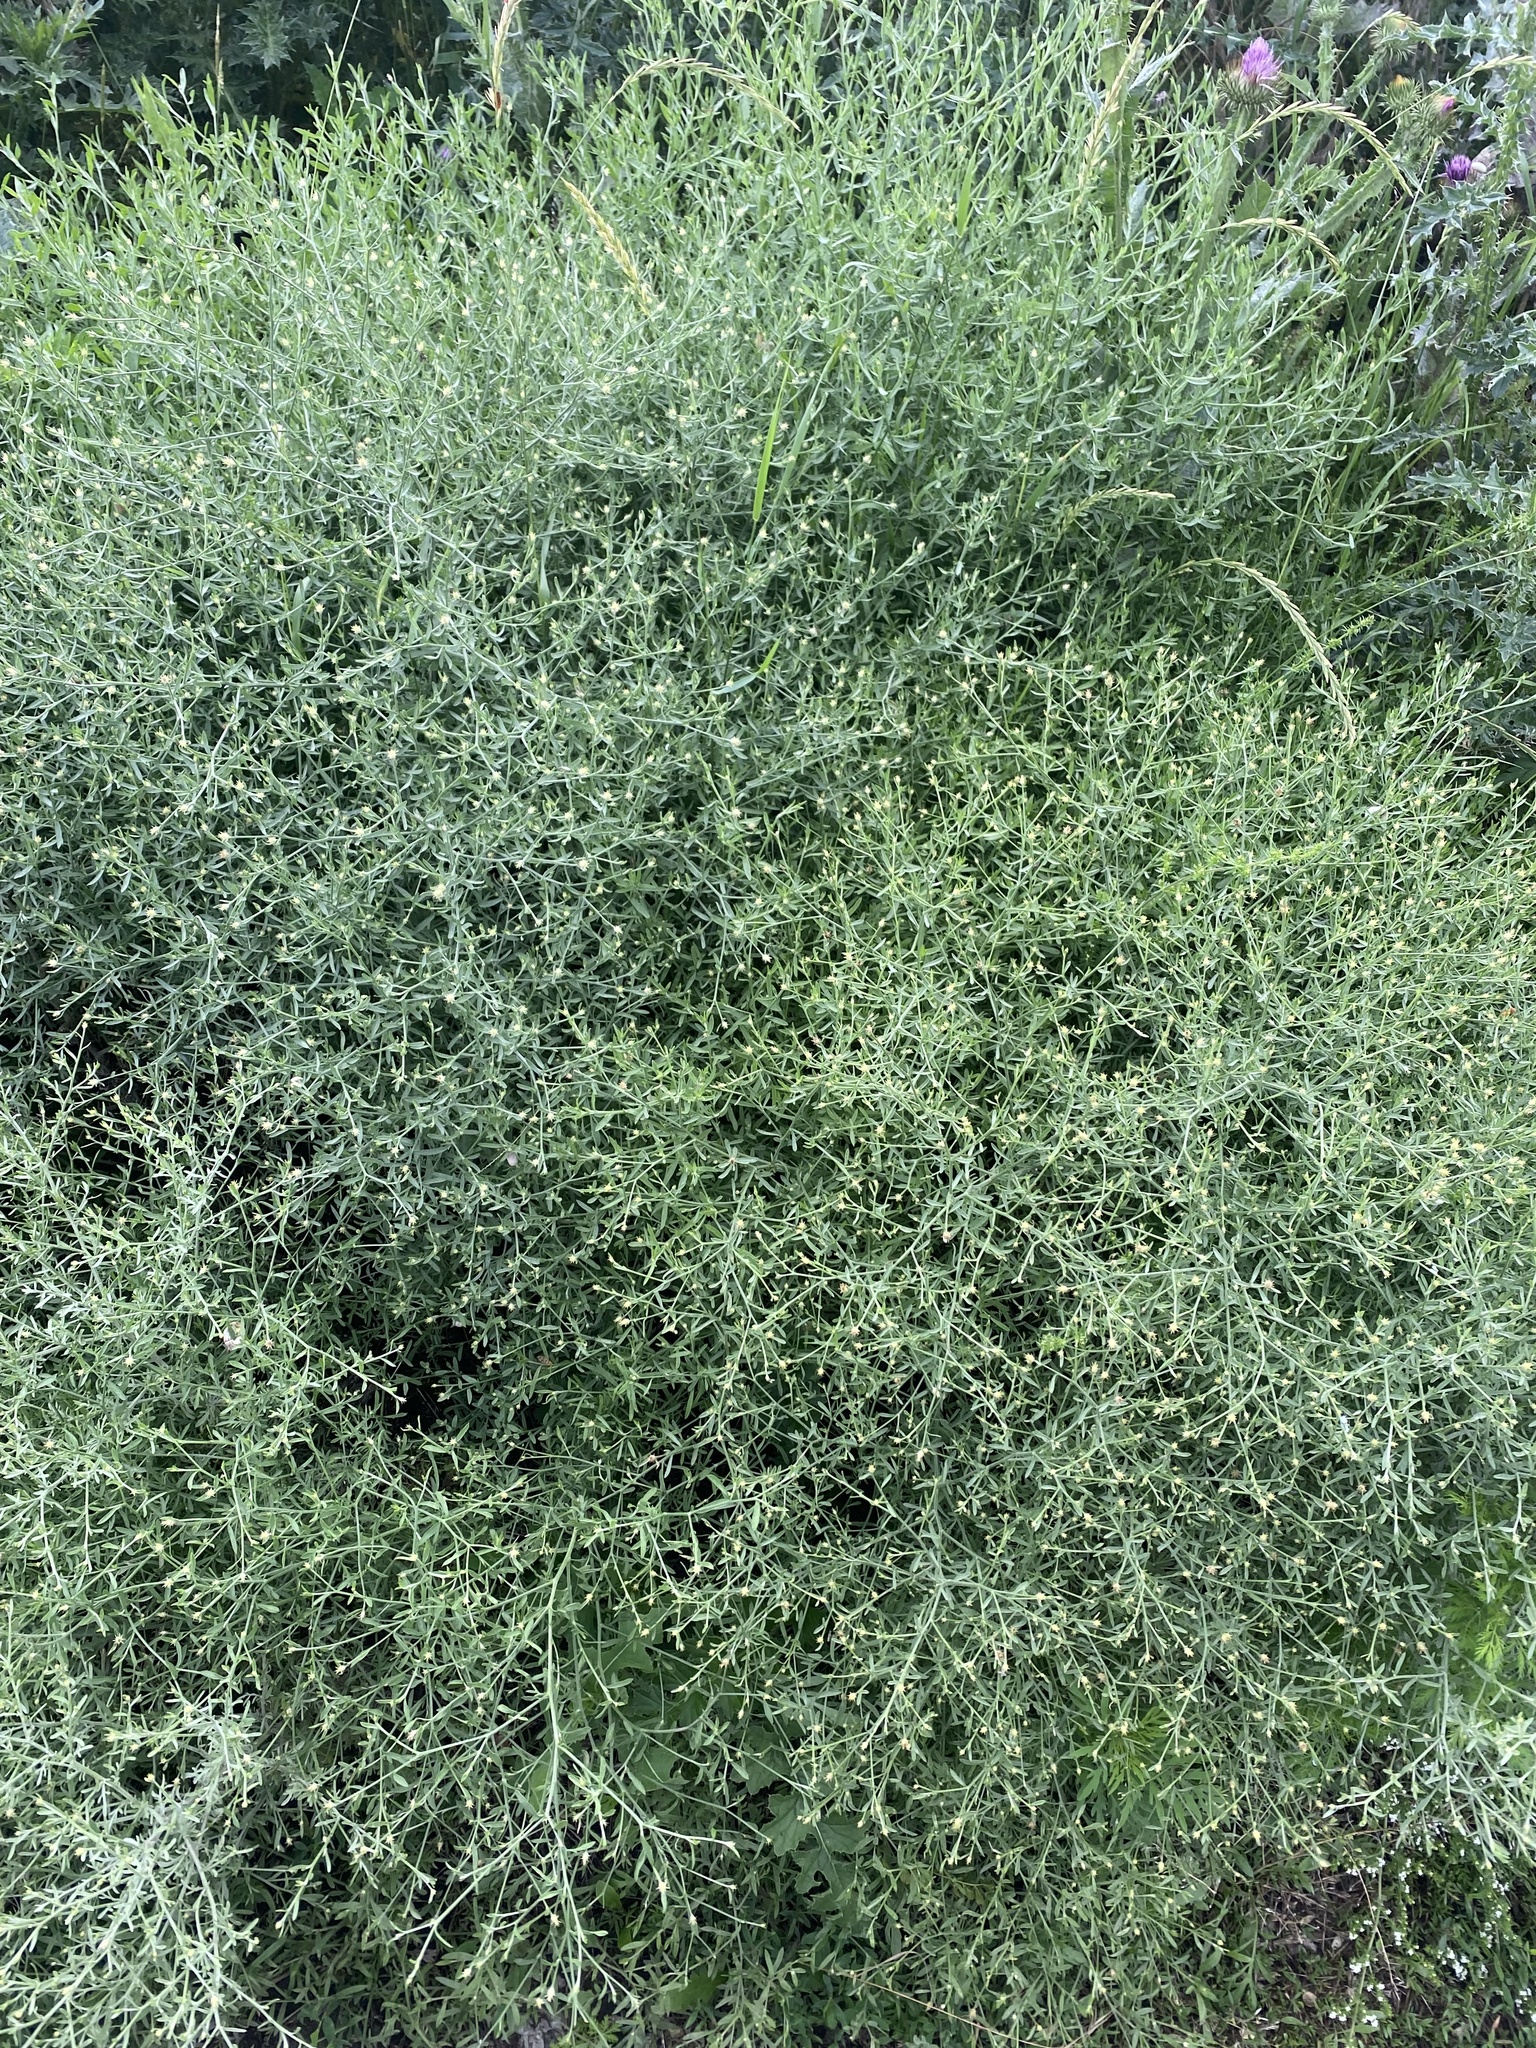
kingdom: Plantae
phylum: Tracheophyta
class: Magnoliopsida
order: Asterales
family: Asteraceae
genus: Centaurea
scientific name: Centaurea diffusa
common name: Diffuse knapweed
